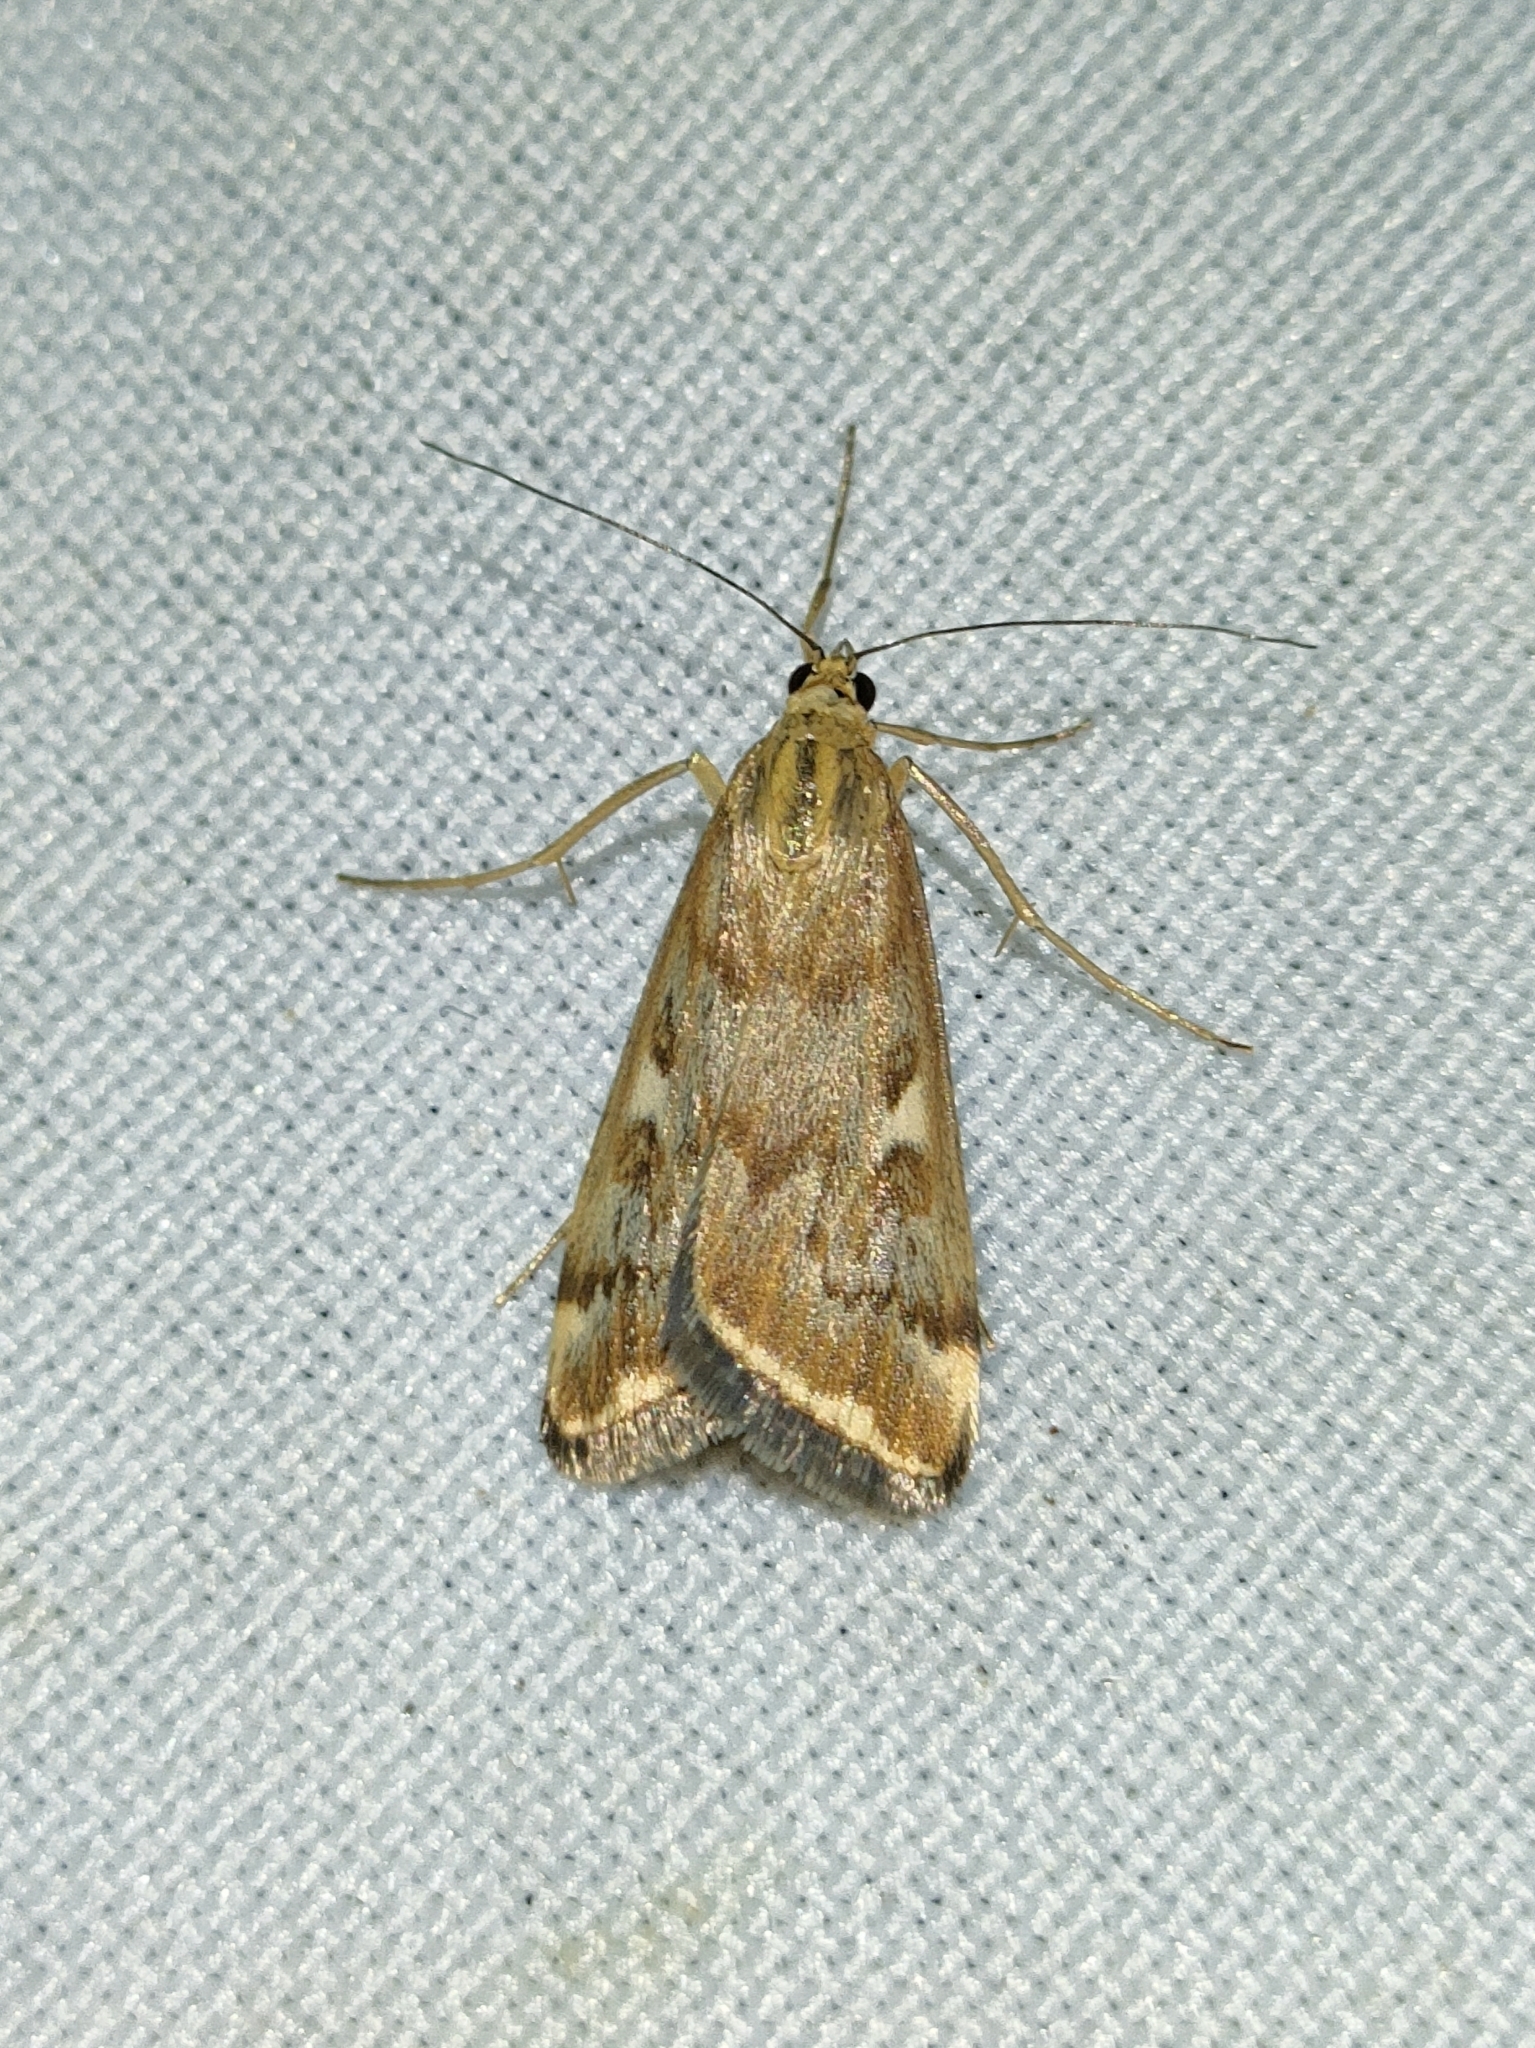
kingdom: Animalia
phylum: Arthropoda
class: Insecta
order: Lepidoptera
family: Crambidae
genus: Loxostege
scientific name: Loxostege sticticalis
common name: Crambid moth
